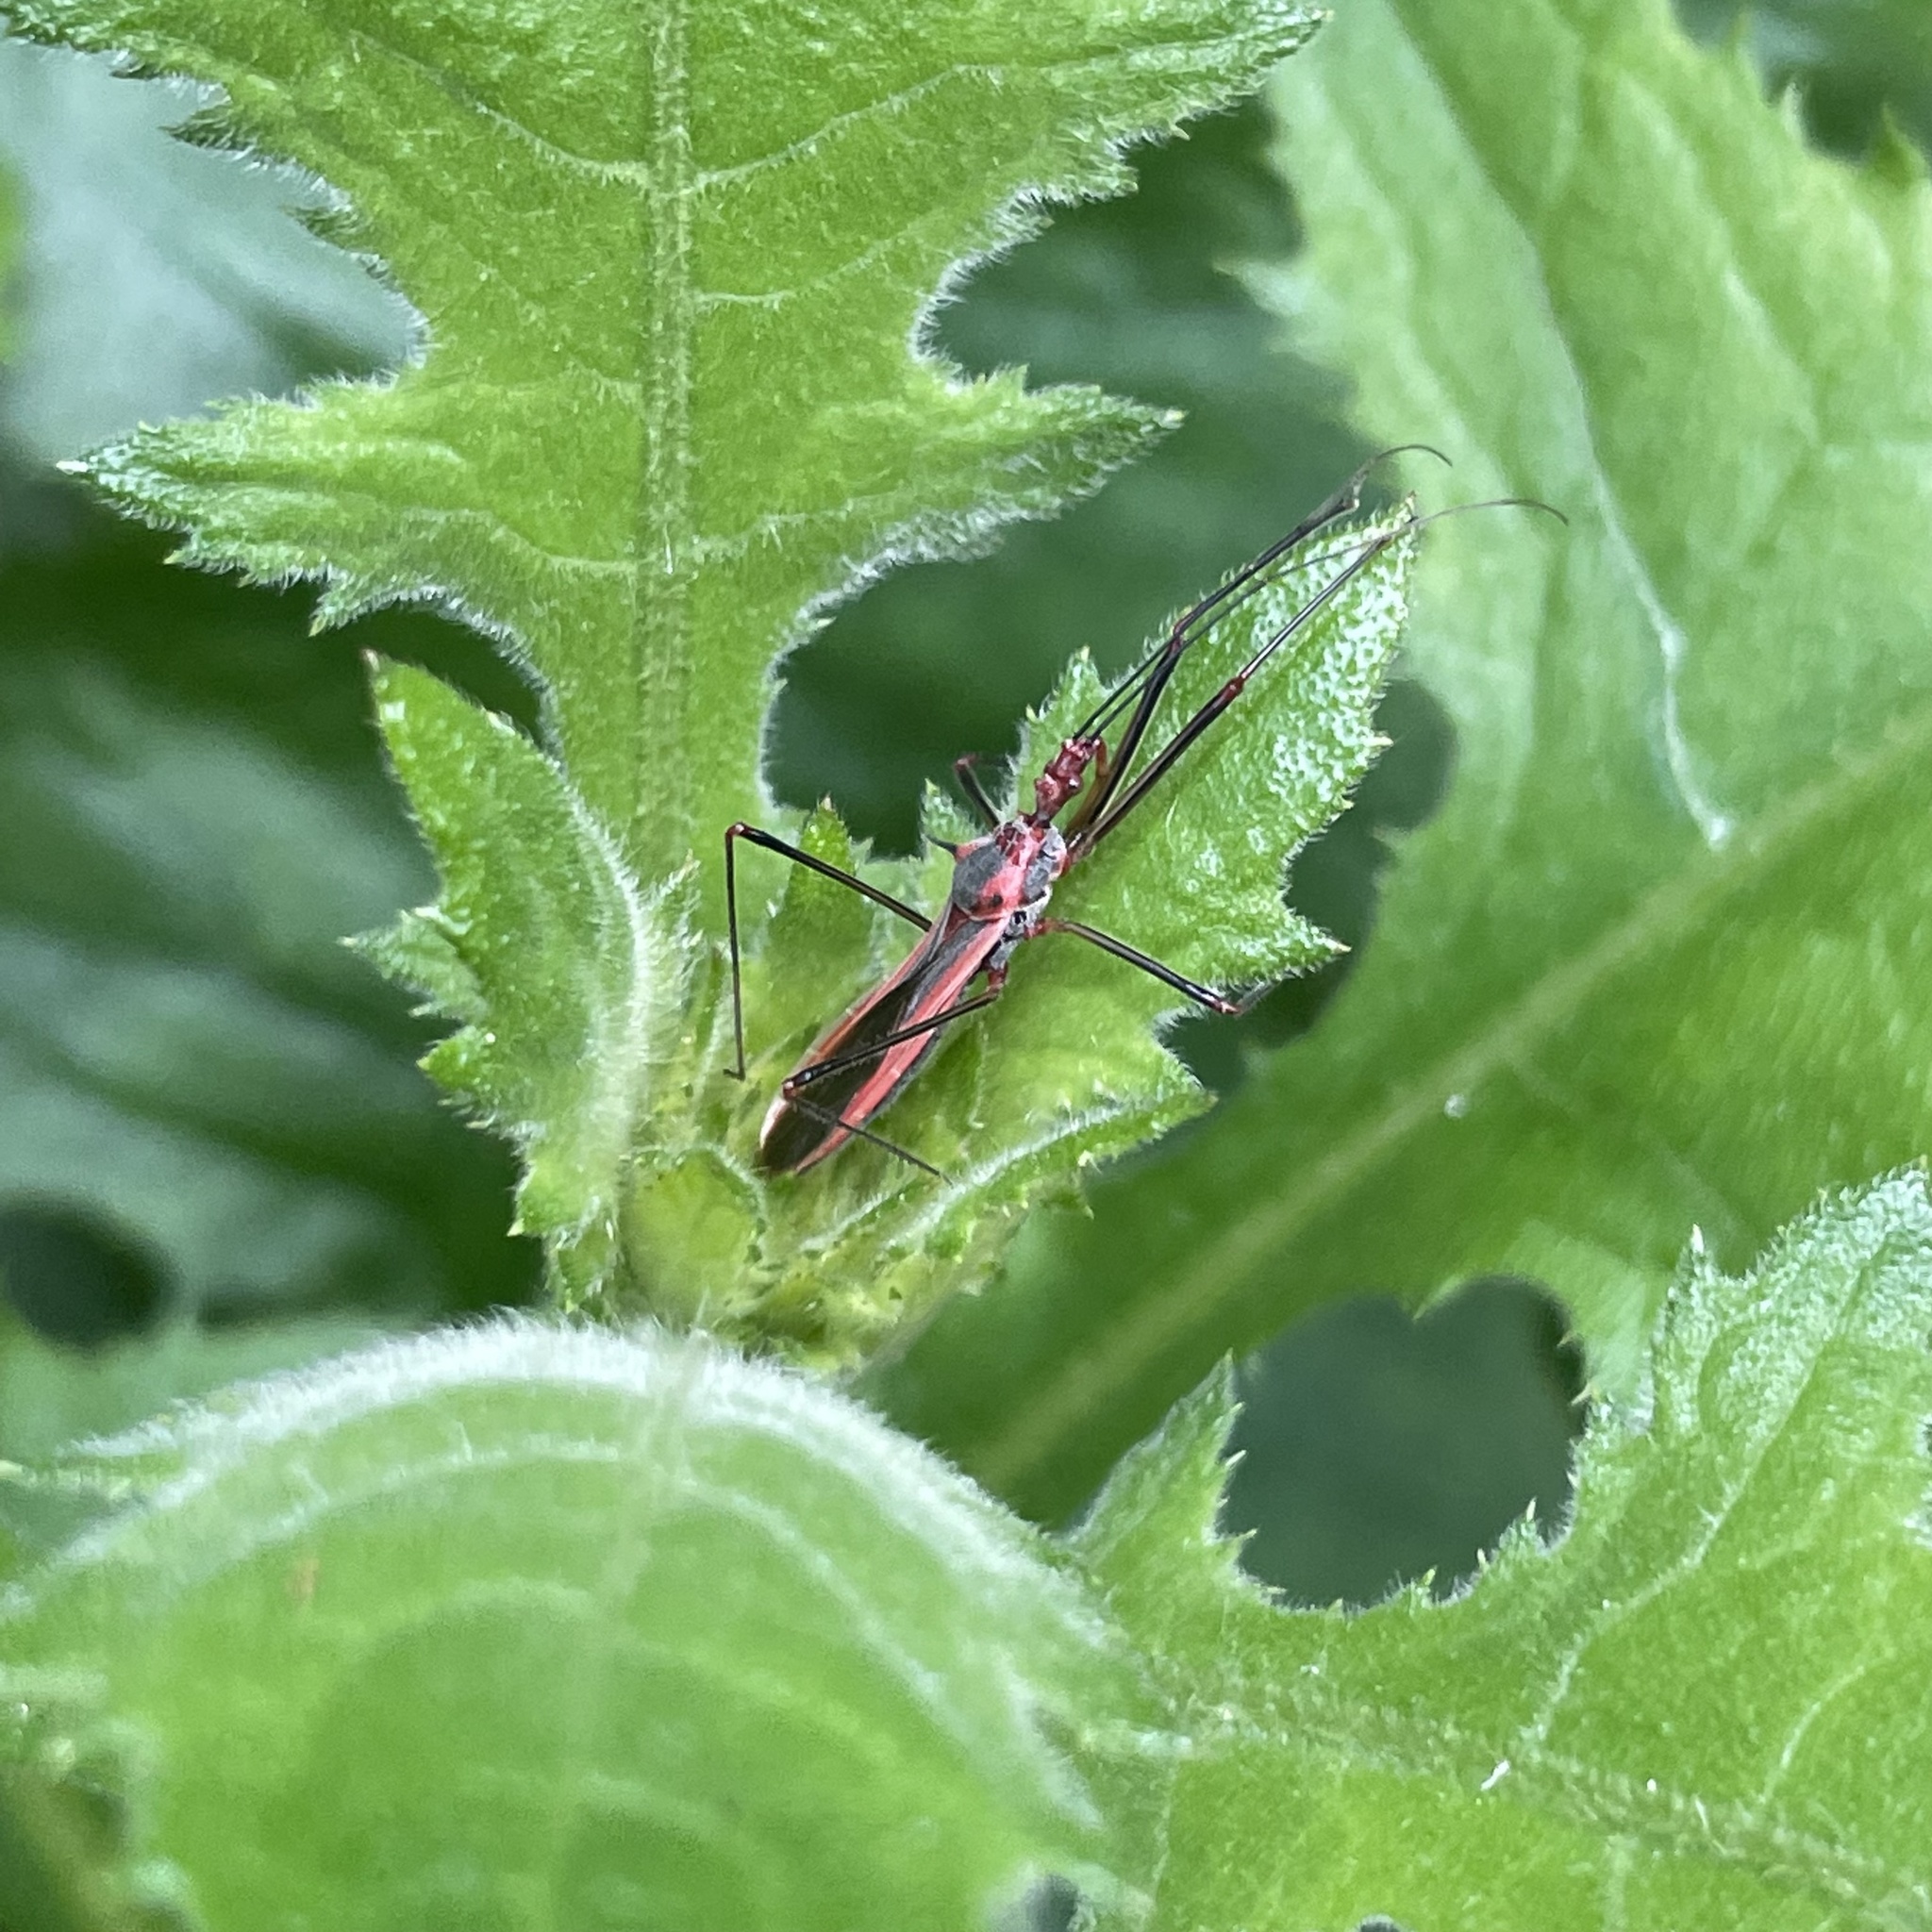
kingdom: Animalia
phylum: Arthropoda
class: Insecta
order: Hemiptera
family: Reduviidae
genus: Euagoras
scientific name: Euagoras plagiatus
